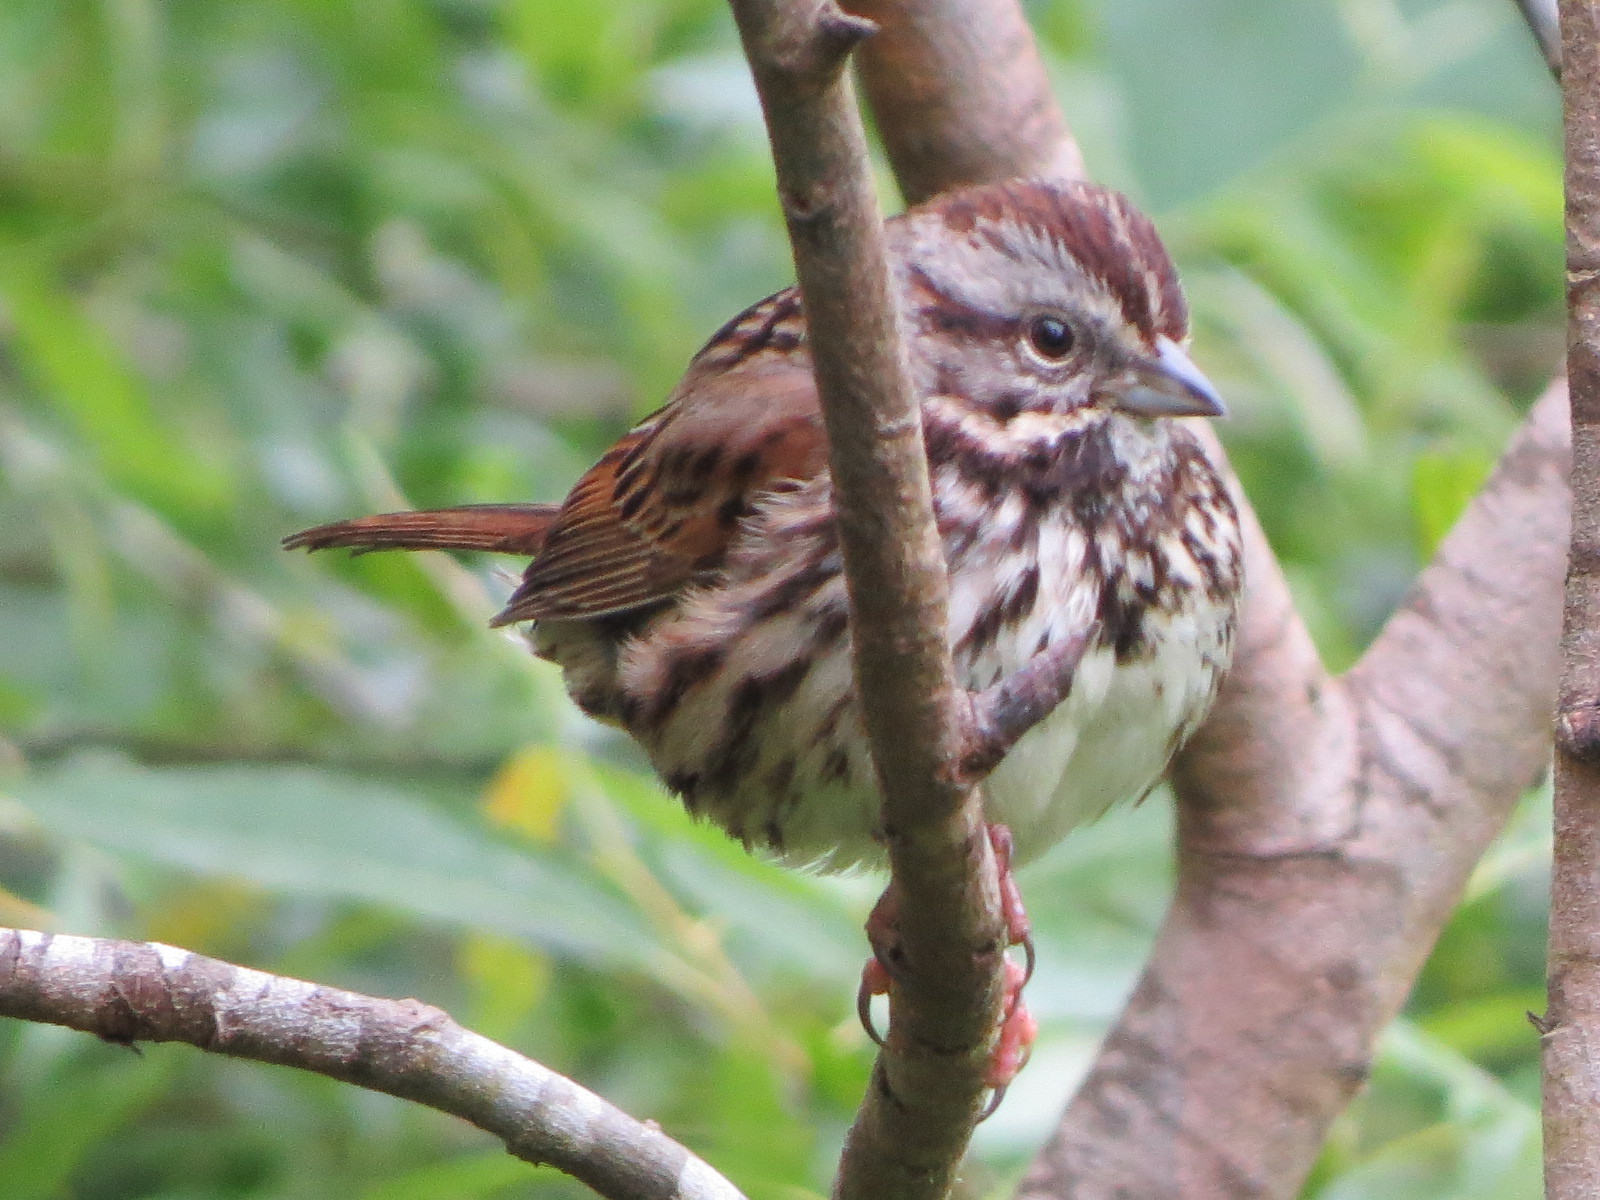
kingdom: Animalia
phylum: Chordata
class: Aves
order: Passeriformes
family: Passerellidae
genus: Melospiza
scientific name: Melospiza melodia
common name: Song sparrow
